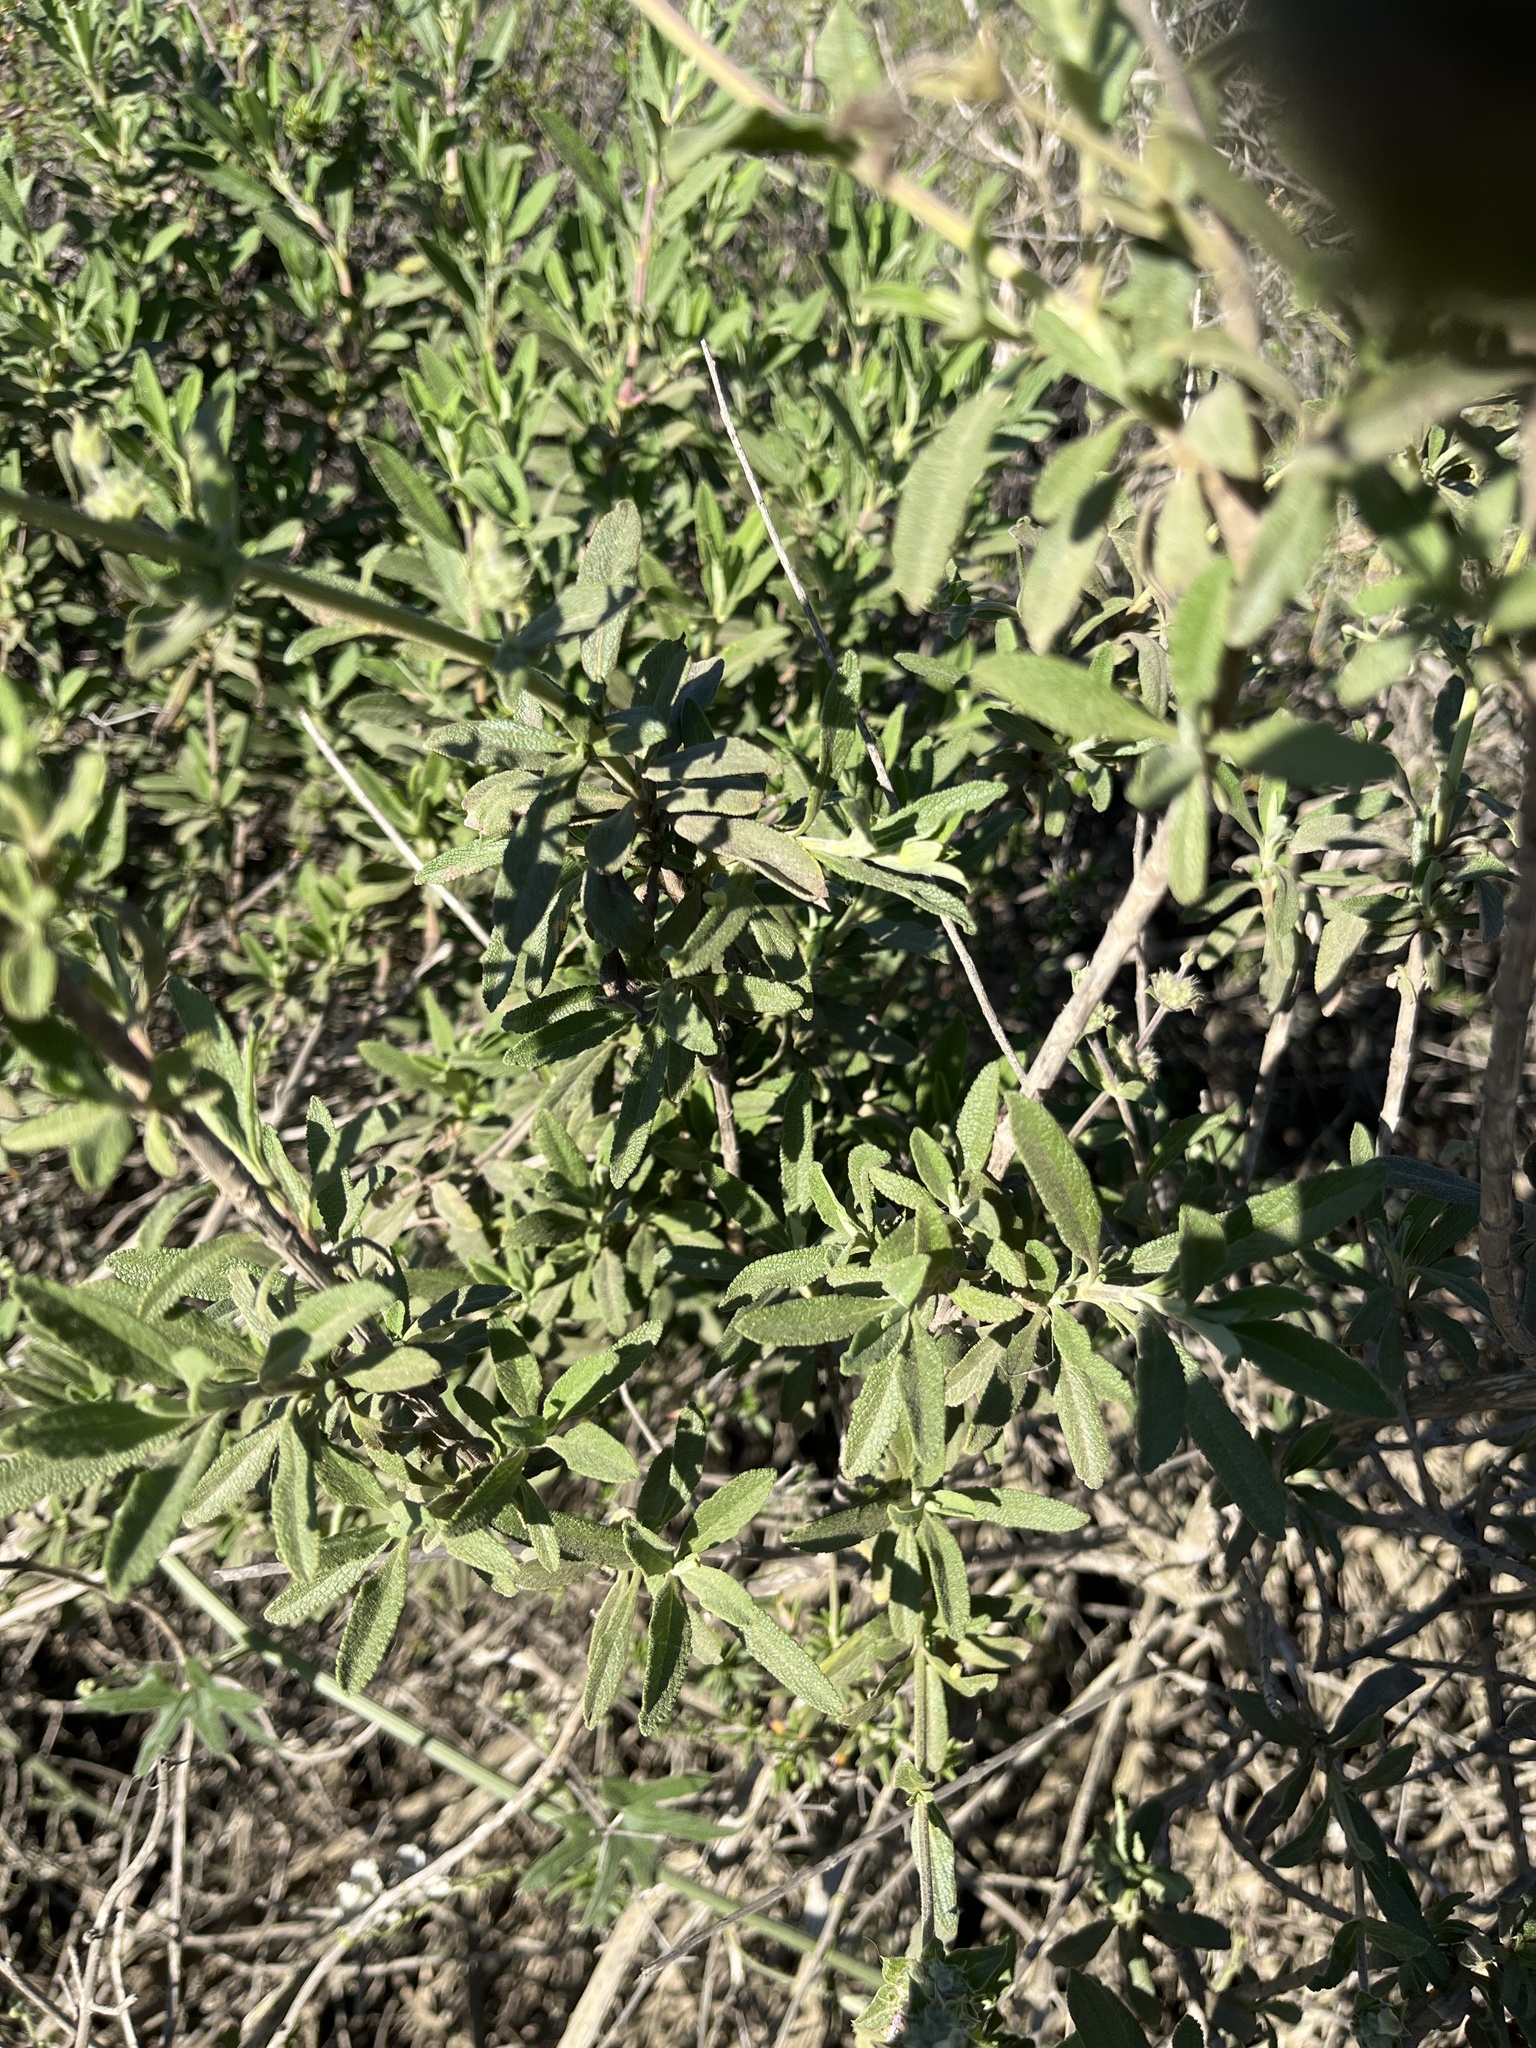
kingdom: Plantae
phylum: Tracheophyta
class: Magnoliopsida
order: Lamiales
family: Lamiaceae
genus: Salvia
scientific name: Salvia mellifera
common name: Black sage
